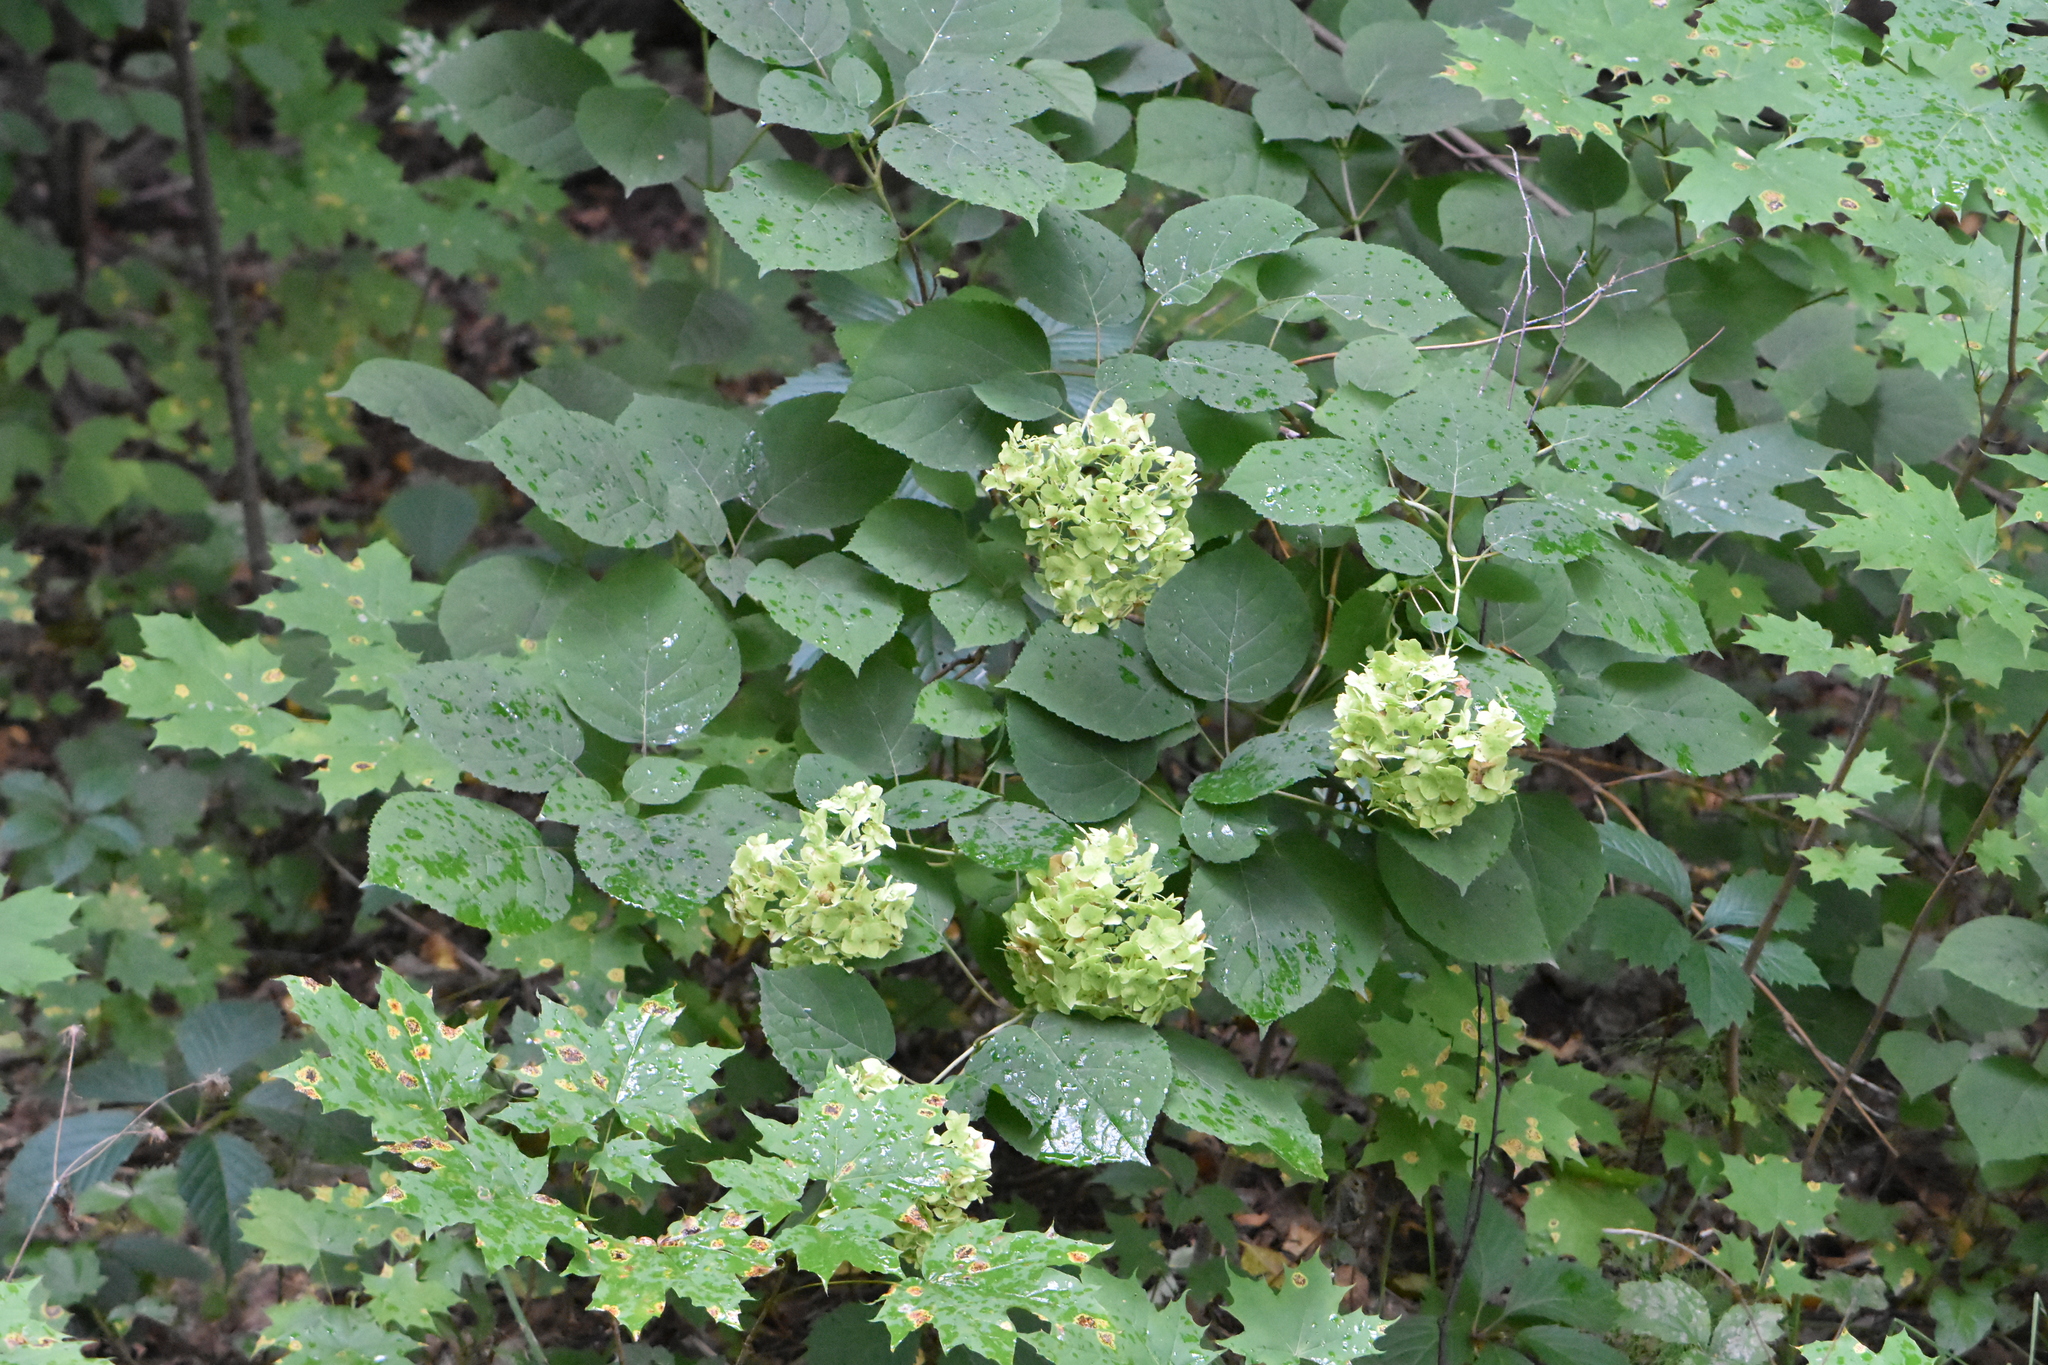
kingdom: Plantae
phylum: Tracheophyta
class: Magnoliopsida
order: Cornales
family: Hydrangeaceae
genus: Hydrangea
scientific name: Hydrangea arborescens
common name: Sevenbark
